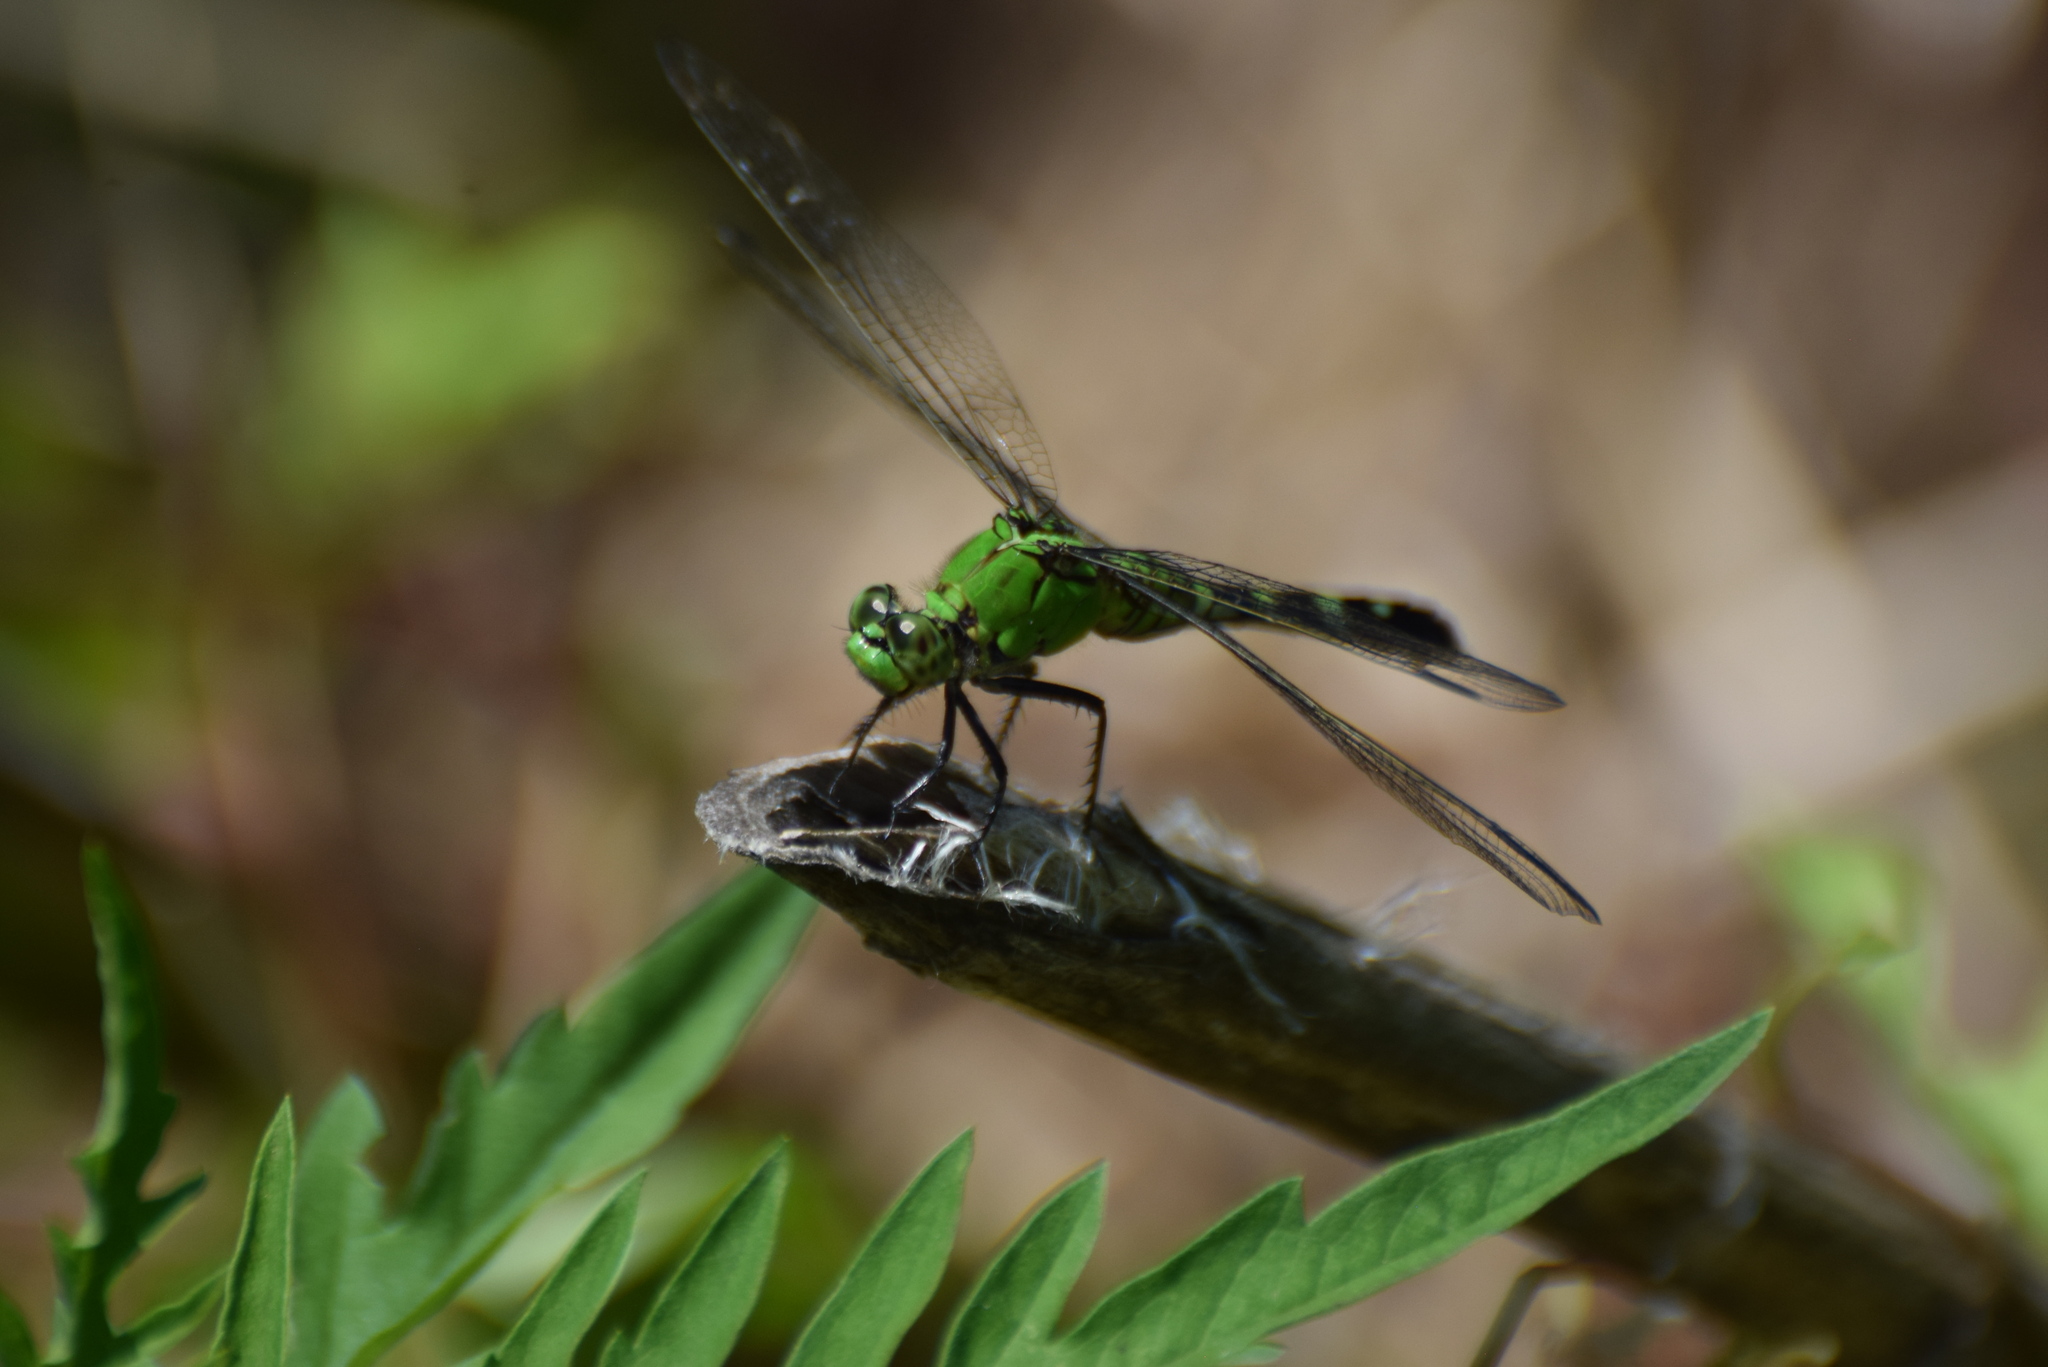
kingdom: Animalia
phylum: Arthropoda
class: Insecta
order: Odonata
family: Libellulidae
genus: Erythemis
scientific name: Erythemis simplicicollis
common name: Eastern pondhawk
